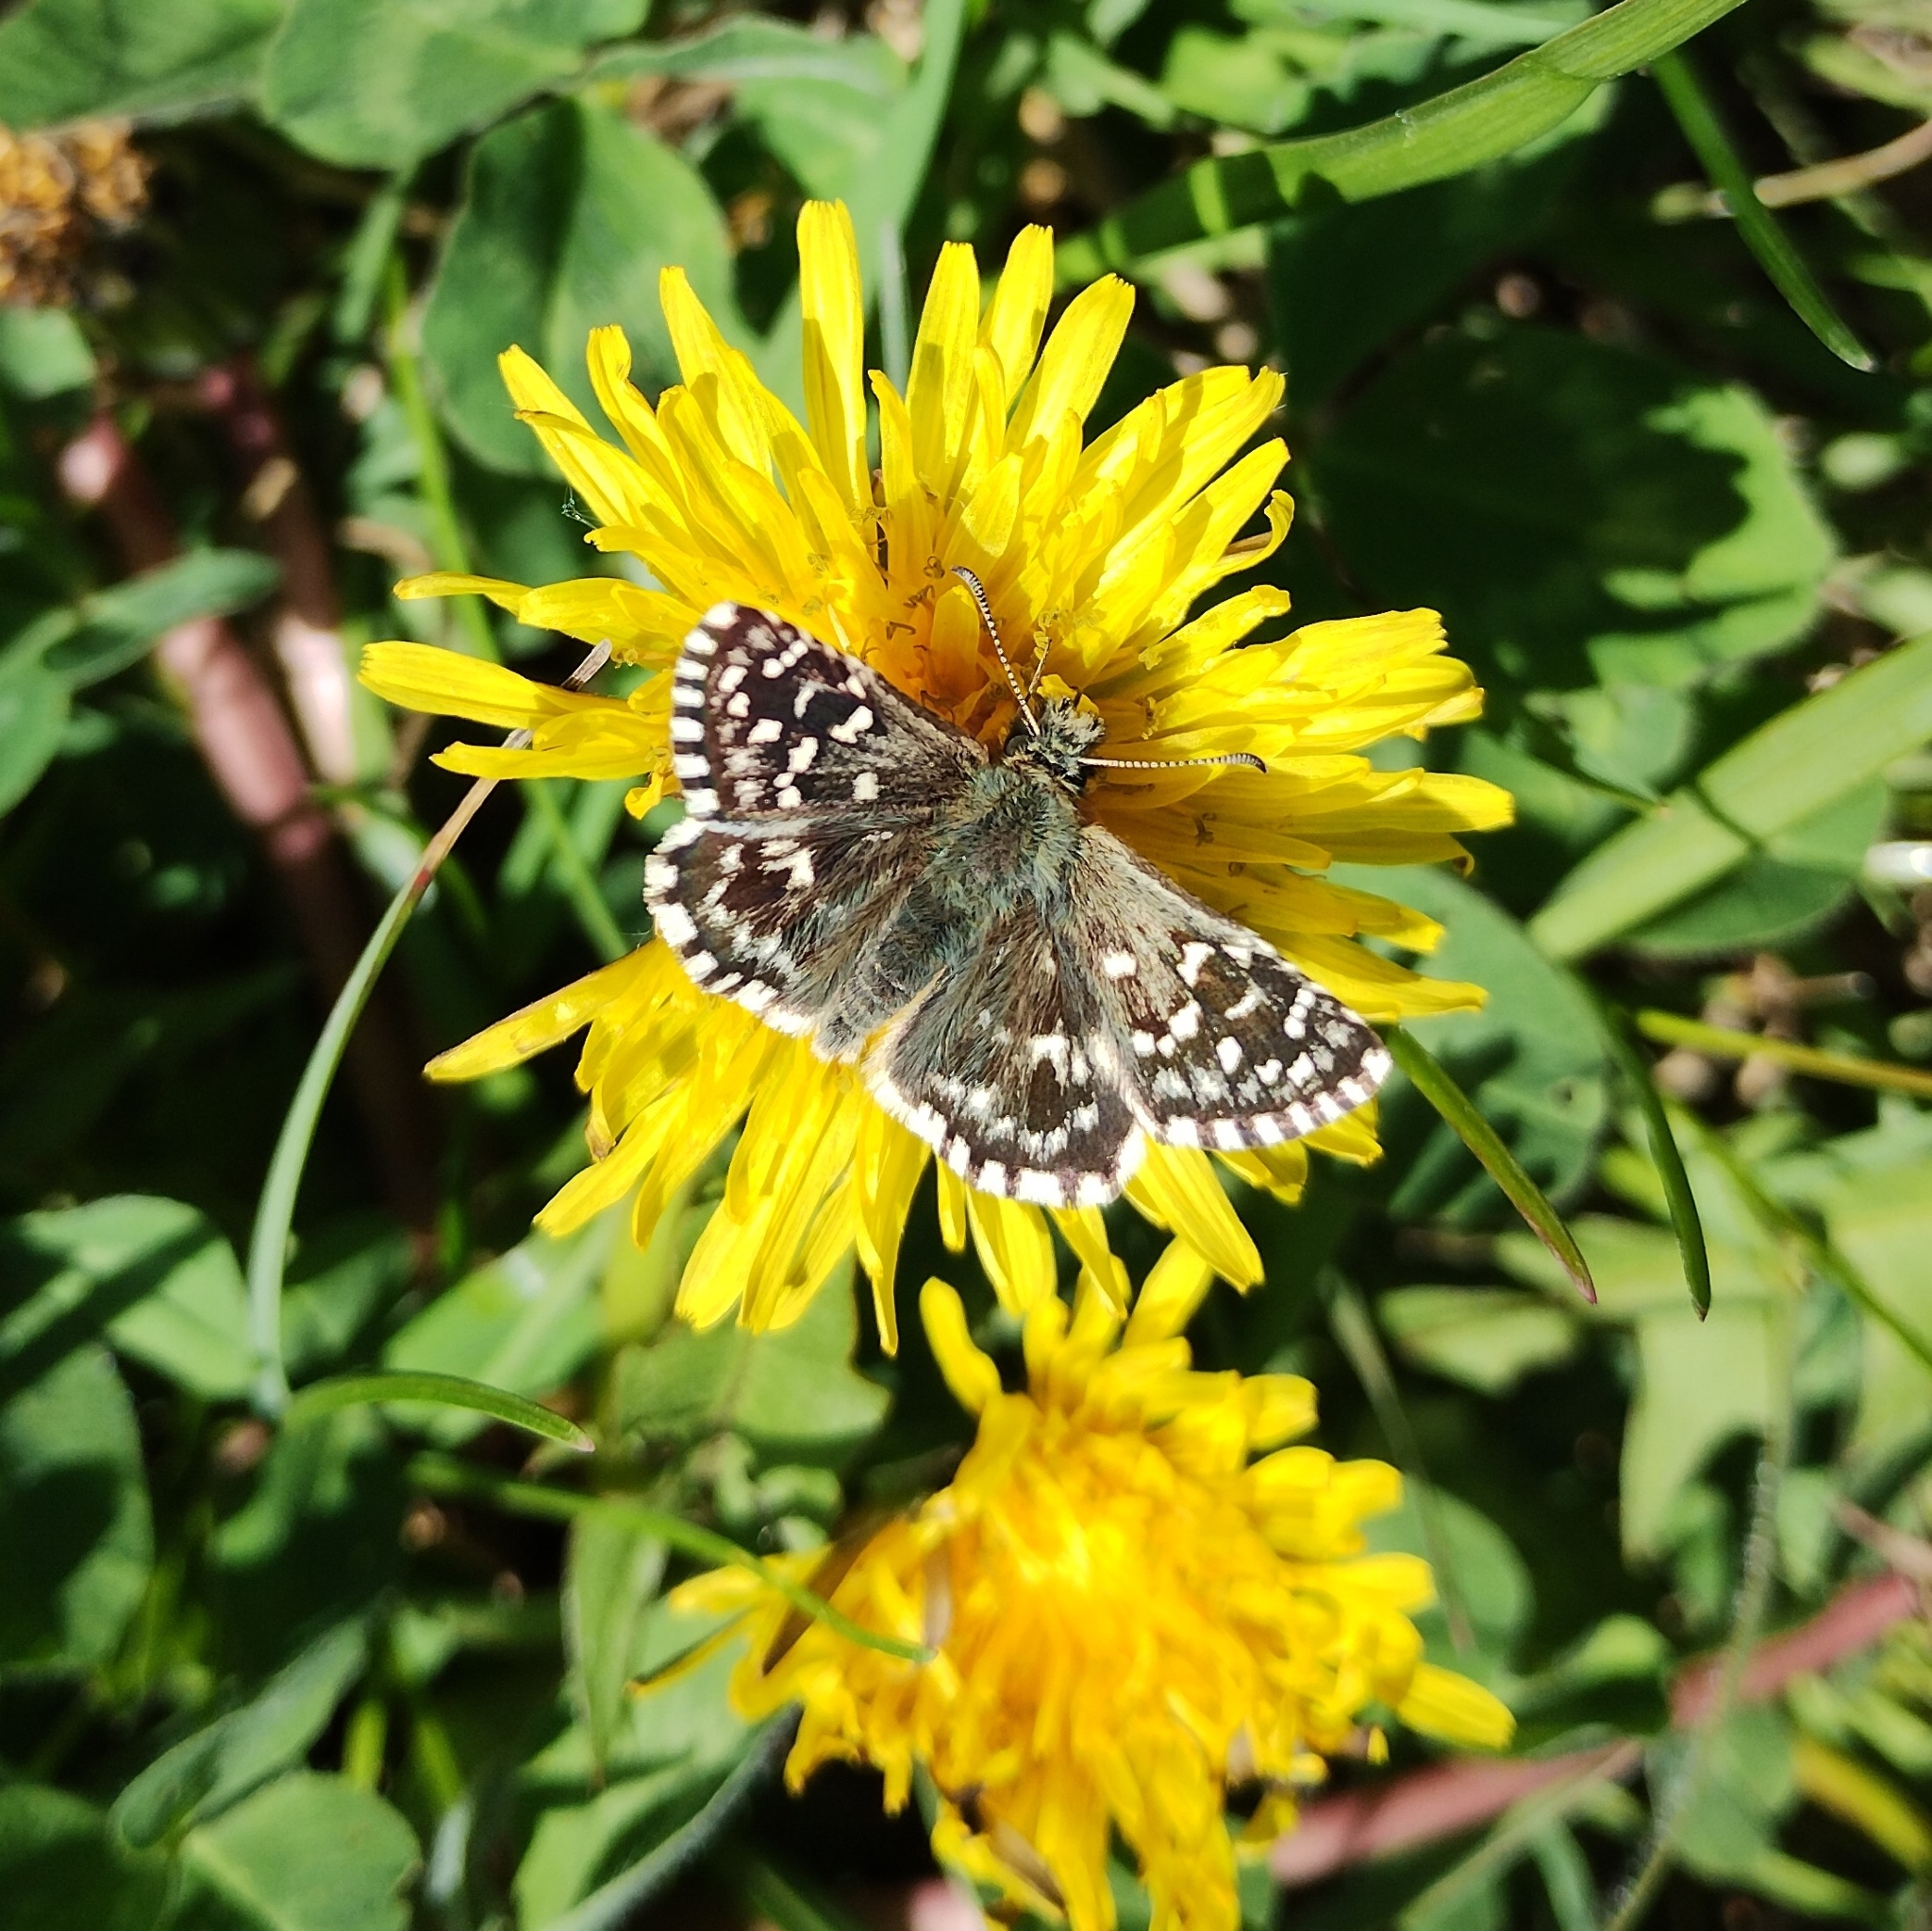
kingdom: Animalia
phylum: Arthropoda
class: Insecta
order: Lepidoptera
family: Hesperiidae
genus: Pyrgus
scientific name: Pyrgus malvae
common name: Grizzled skipper
